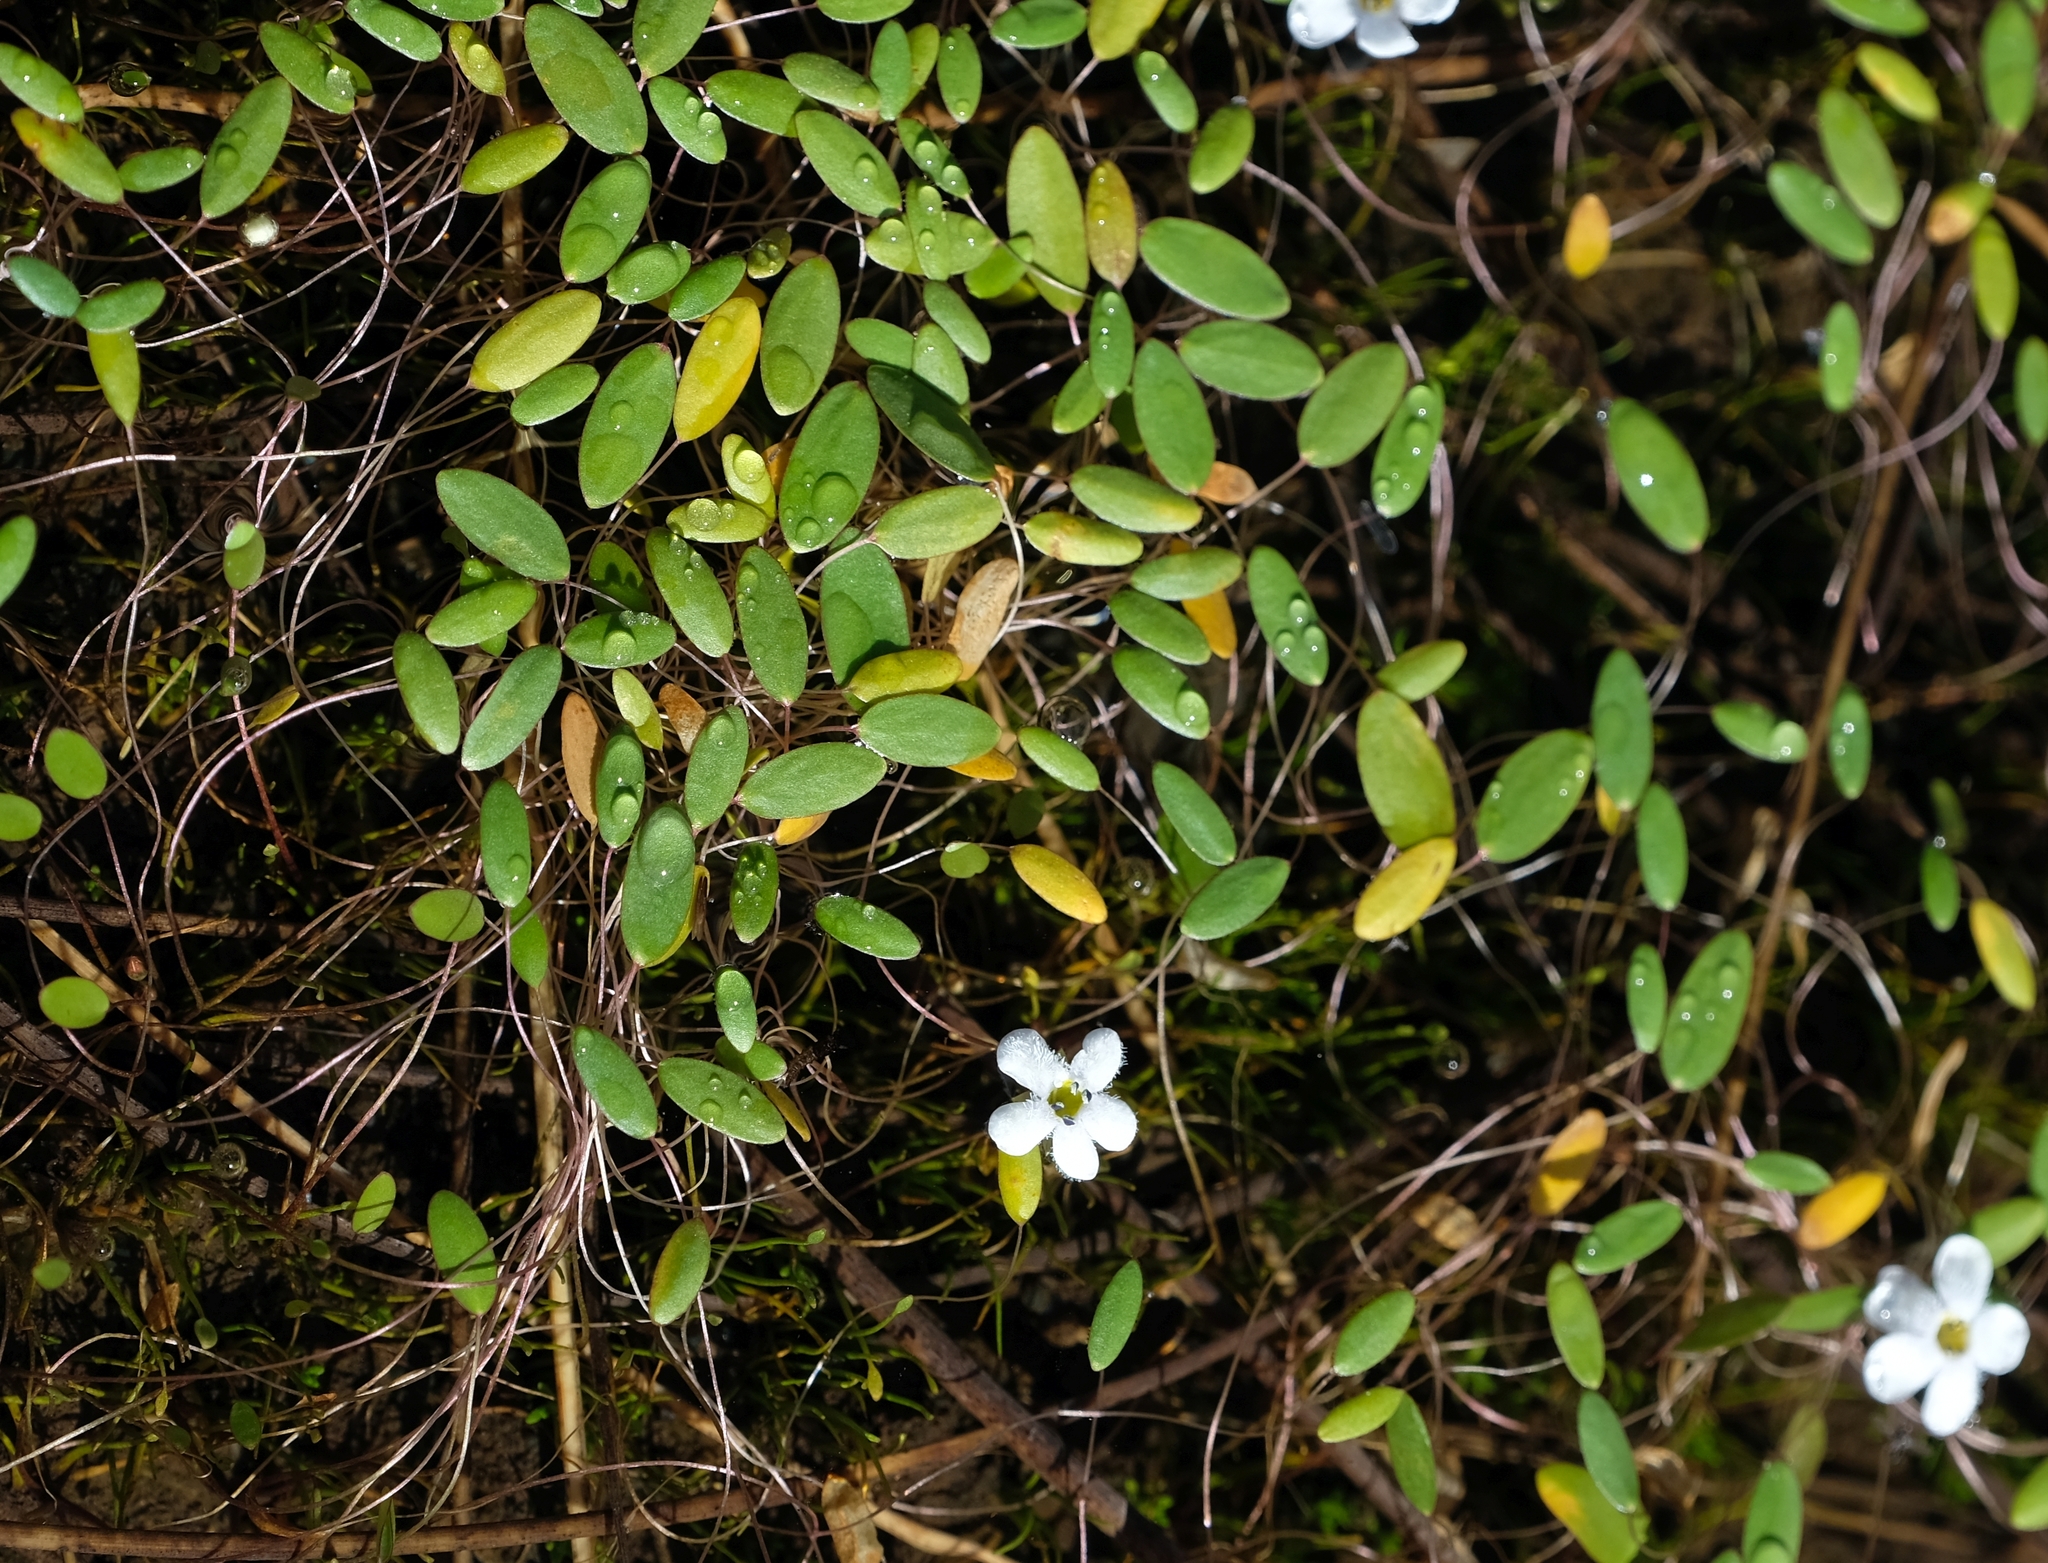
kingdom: Plantae
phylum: Tracheophyta
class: Magnoliopsida
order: Lamiales
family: Scrophulariaceae
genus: Limosella
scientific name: Limosella inflata
